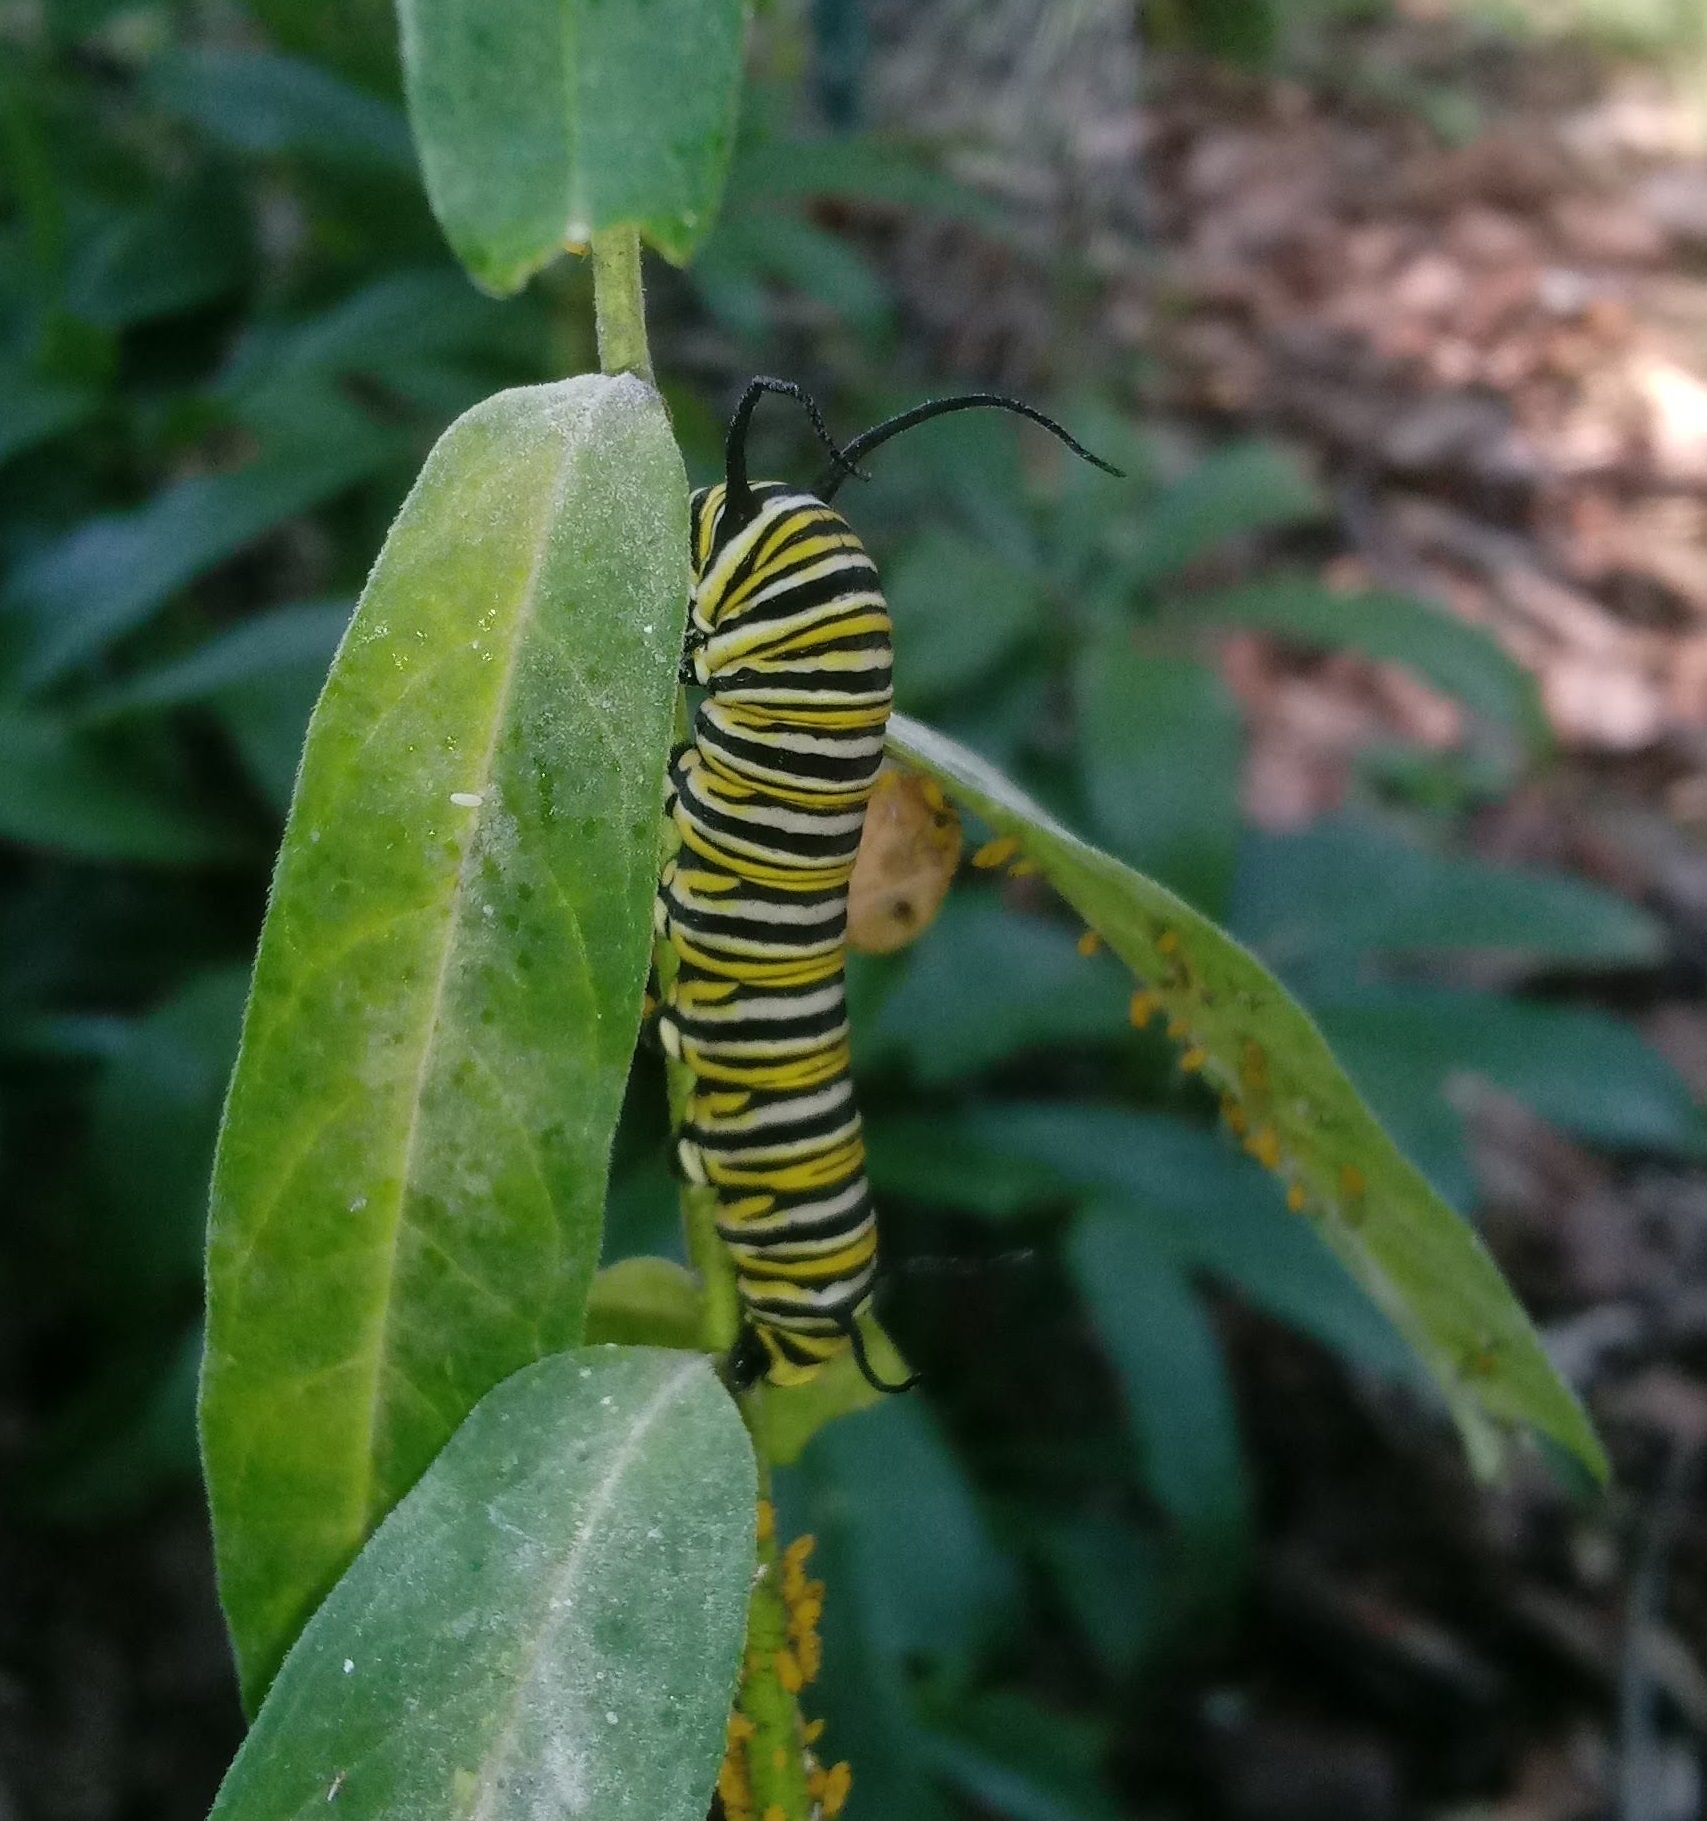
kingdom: Animalia
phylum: Arthropoda
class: Insecta
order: Lepidoptera
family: Nymphalidae
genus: Danaus
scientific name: Danaus plexippus
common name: Monarch
